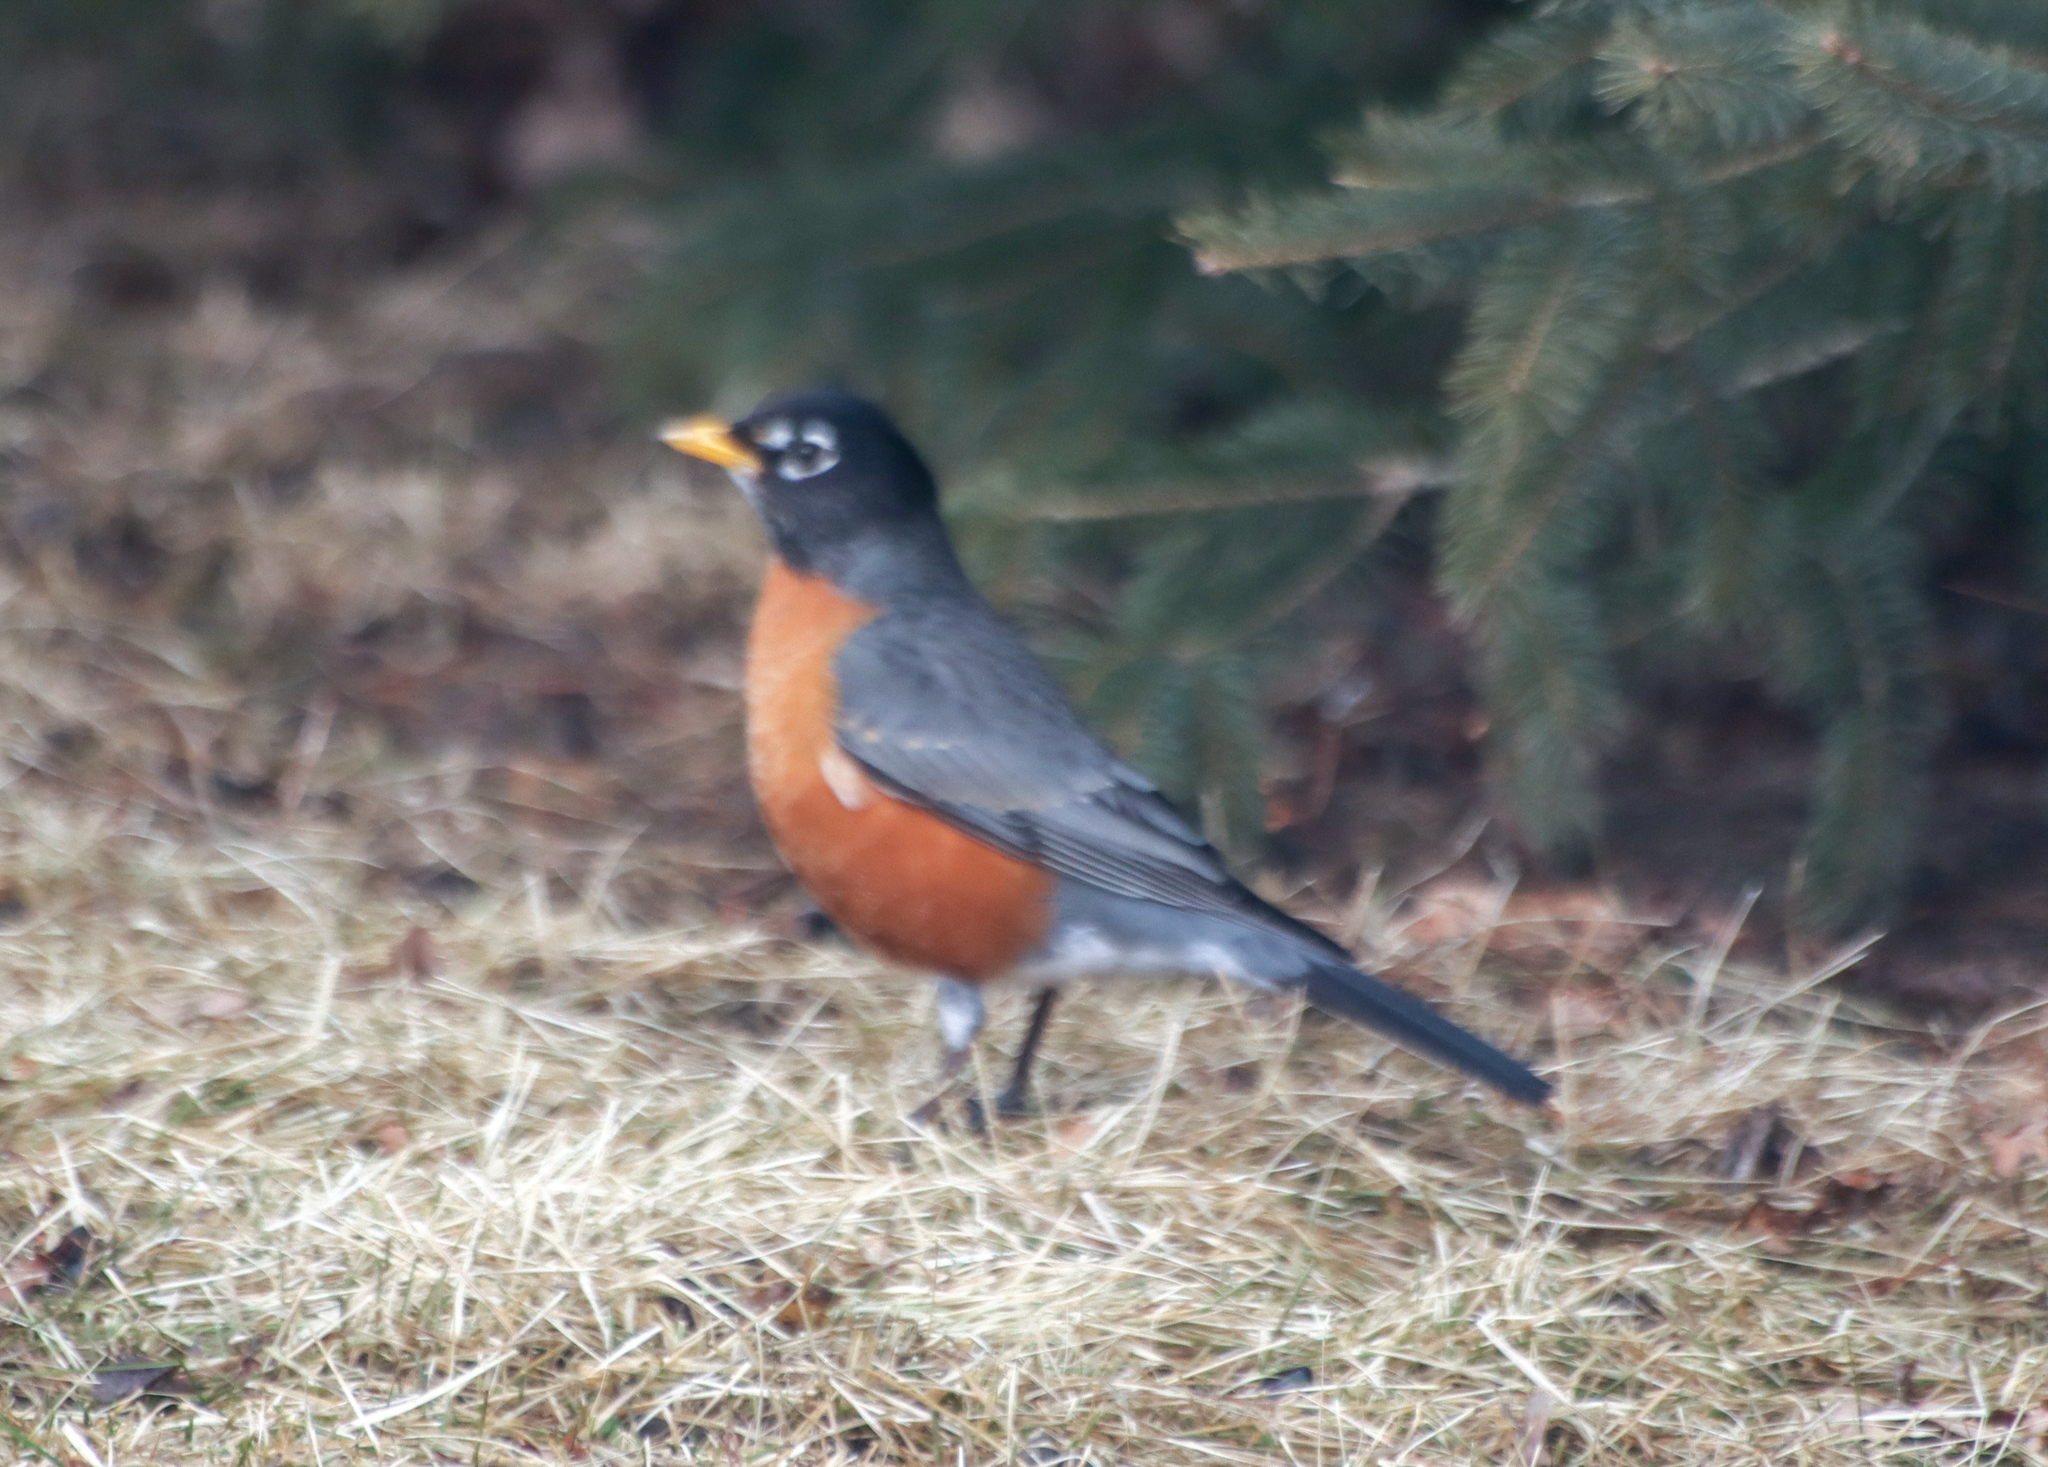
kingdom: Animalia
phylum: Chordata
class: Aves
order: Passeriformes
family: Turdidae
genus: Turdus
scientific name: Turdus migratorius
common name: American robin
